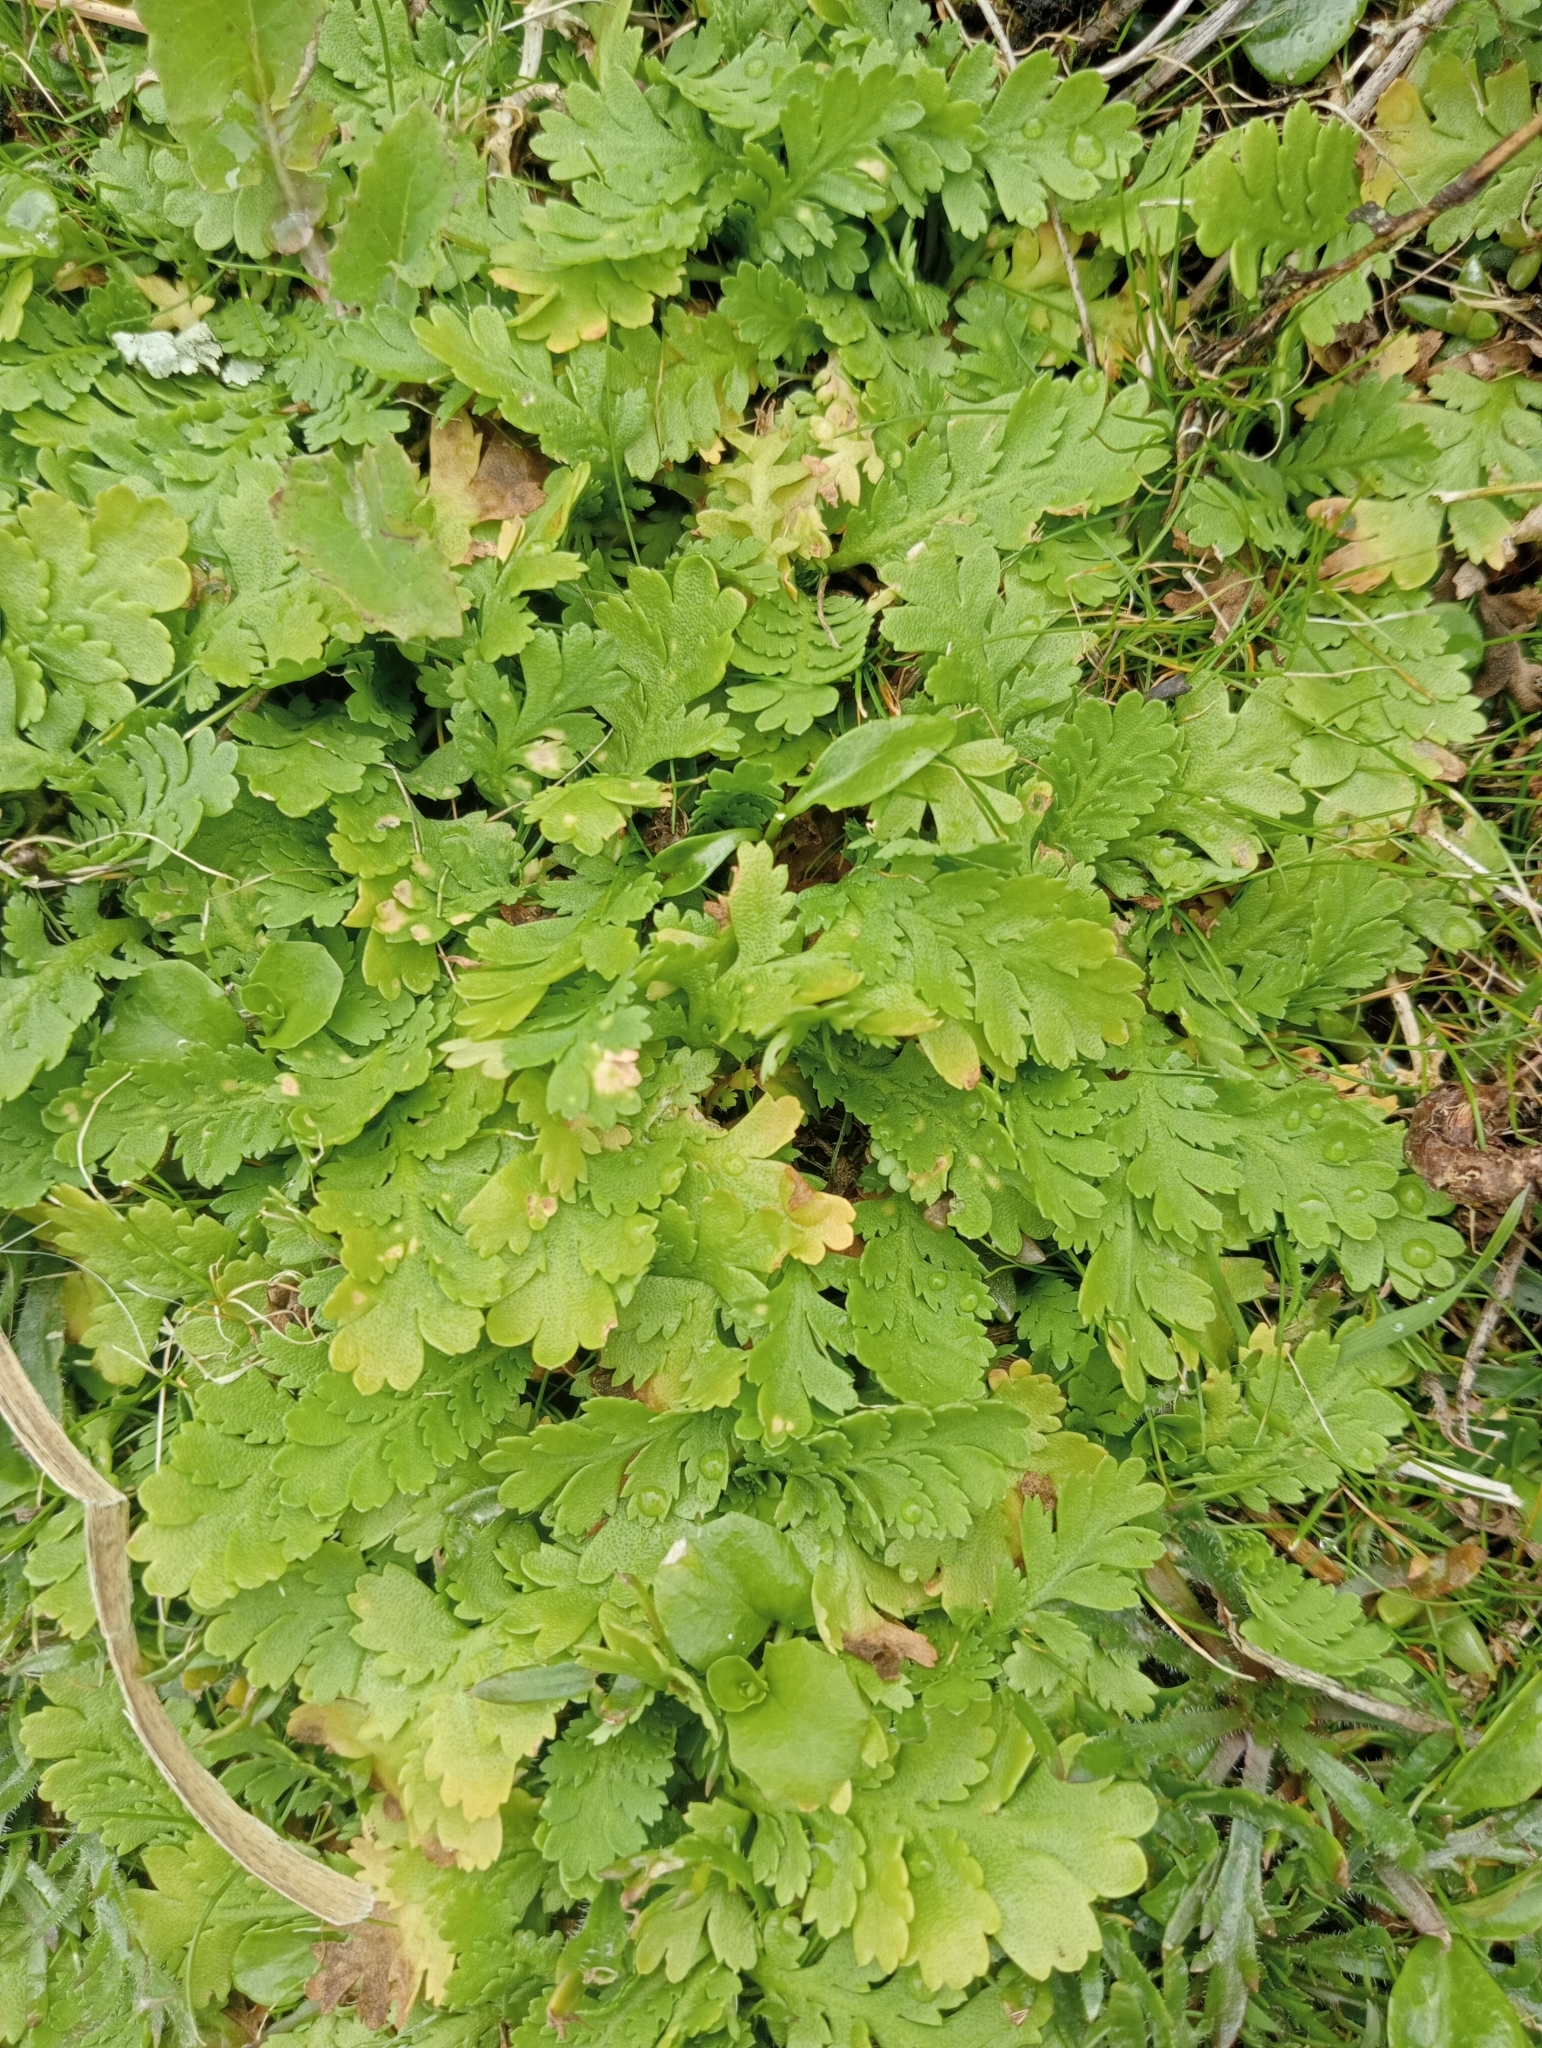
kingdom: Plantae
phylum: Tracheophyta
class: Magnoliopsida
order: Asterales
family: Asteraceae
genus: Leptinella
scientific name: Leptinella potentillina
